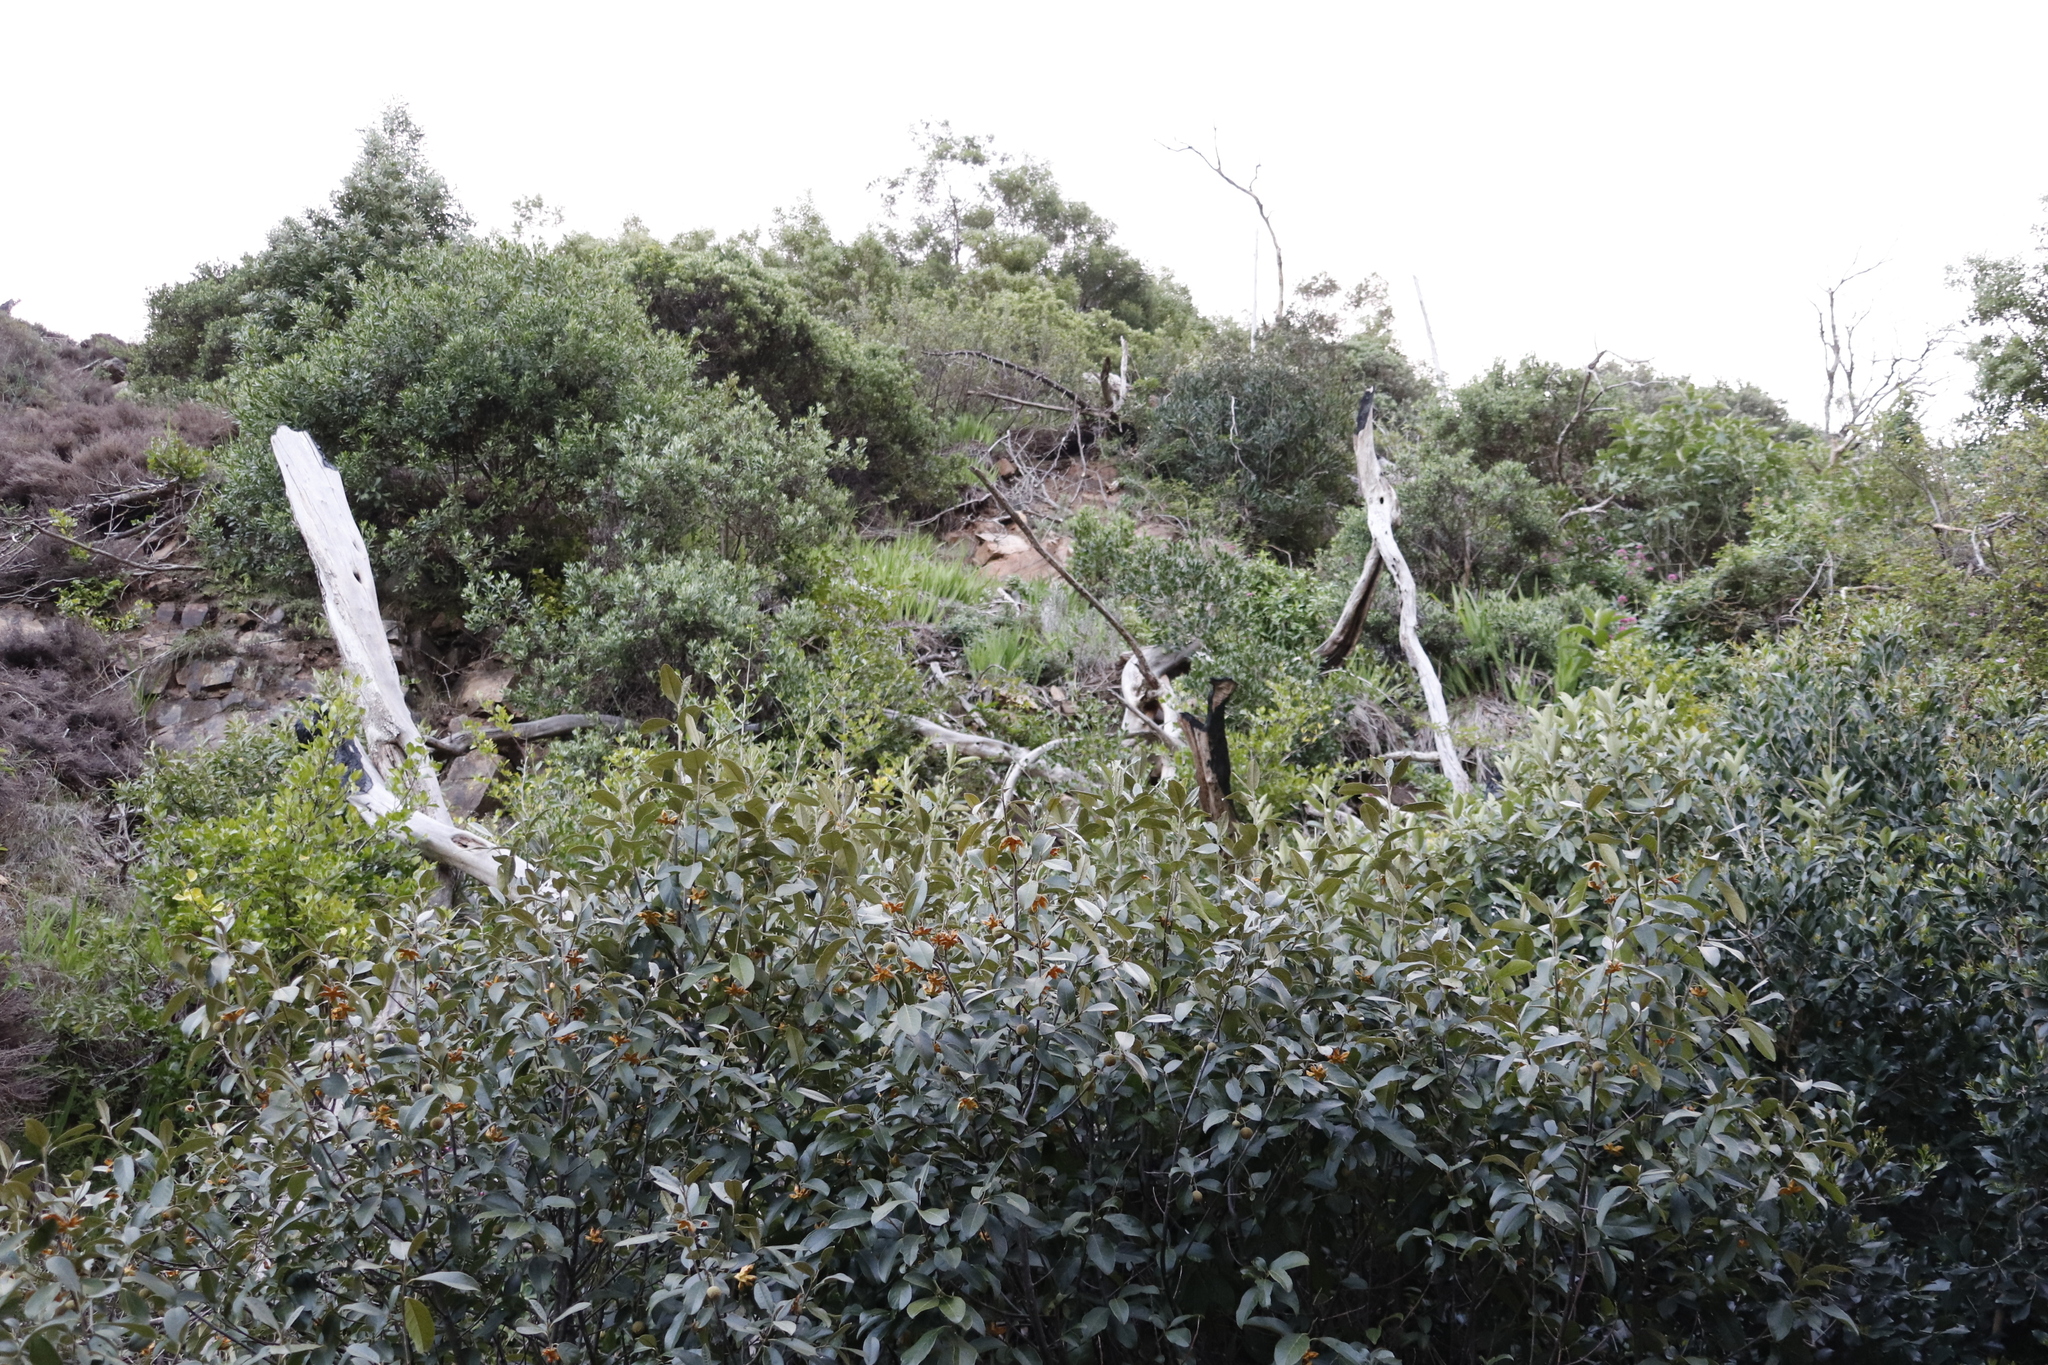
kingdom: Plantae
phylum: Tracheophyta
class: Liliopsida
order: Asparagales
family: Iridaceae
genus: Chasmanthe
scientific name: Chasmanthe aethiopica
